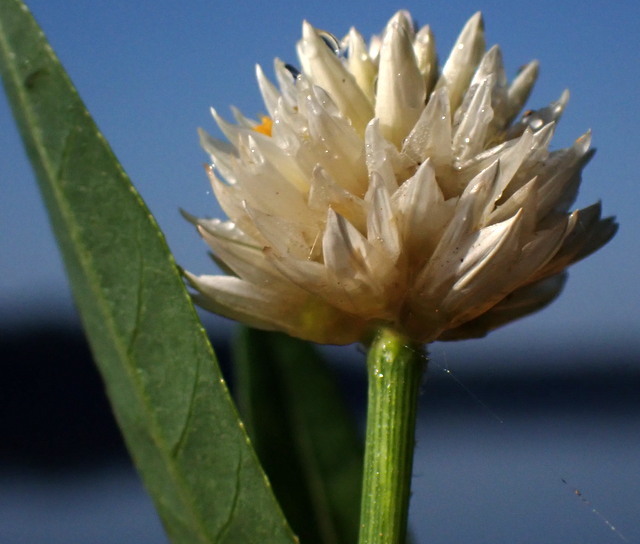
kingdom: Plantae
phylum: Tracheophyta
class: Magnoliopsida
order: Caryophyllales
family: Amaranthaceae
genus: Alternanthera
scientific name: Alternanthera philoxeroides
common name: Alligatorweed
